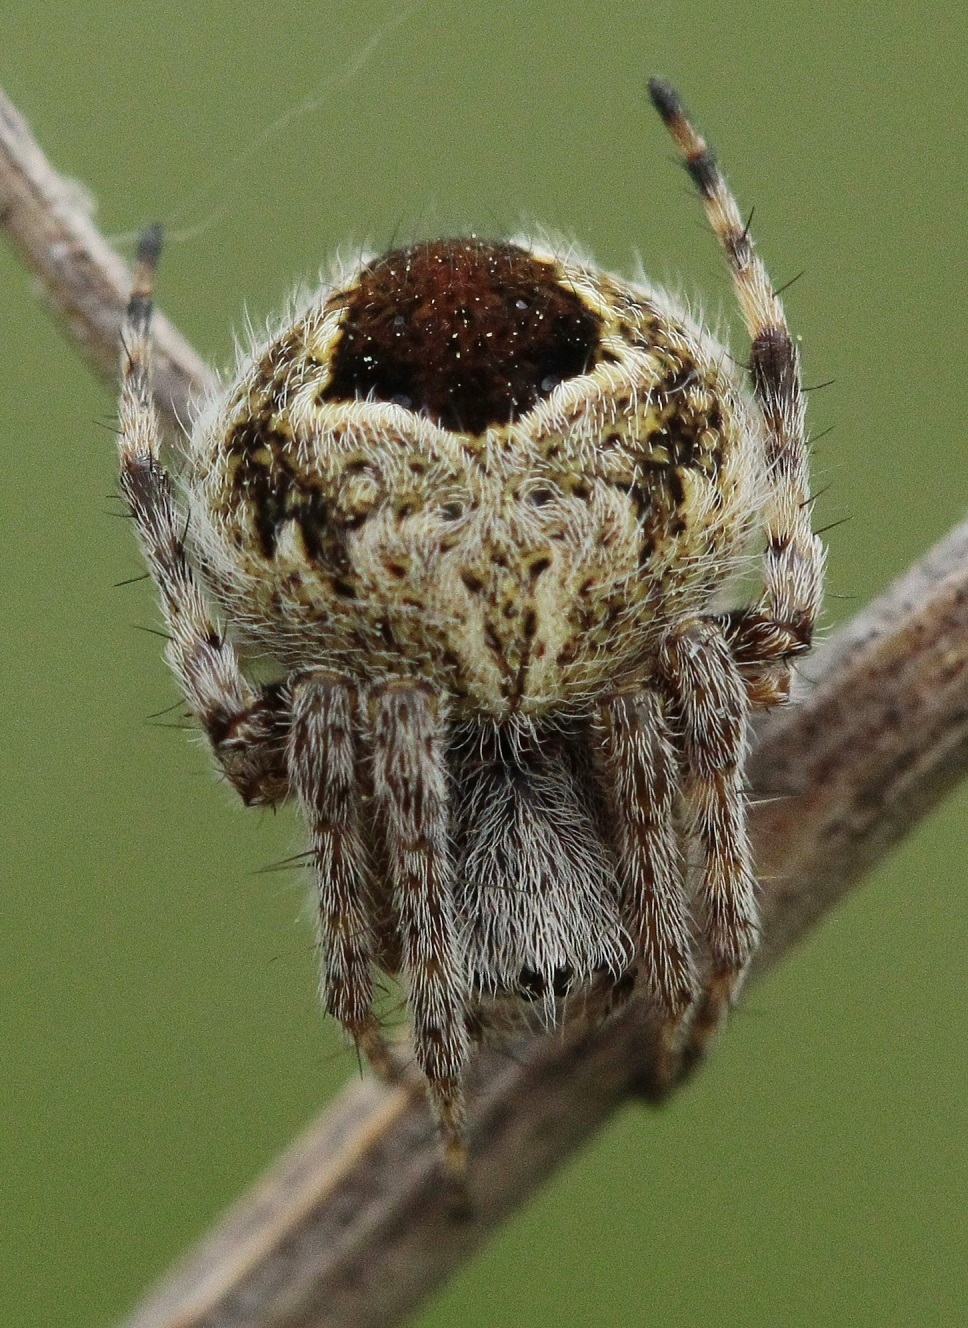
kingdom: Animalia
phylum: Arthropoda
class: Arachnida
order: Araneae
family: Araneidae
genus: Agalenatea
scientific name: Agalenatea redii
